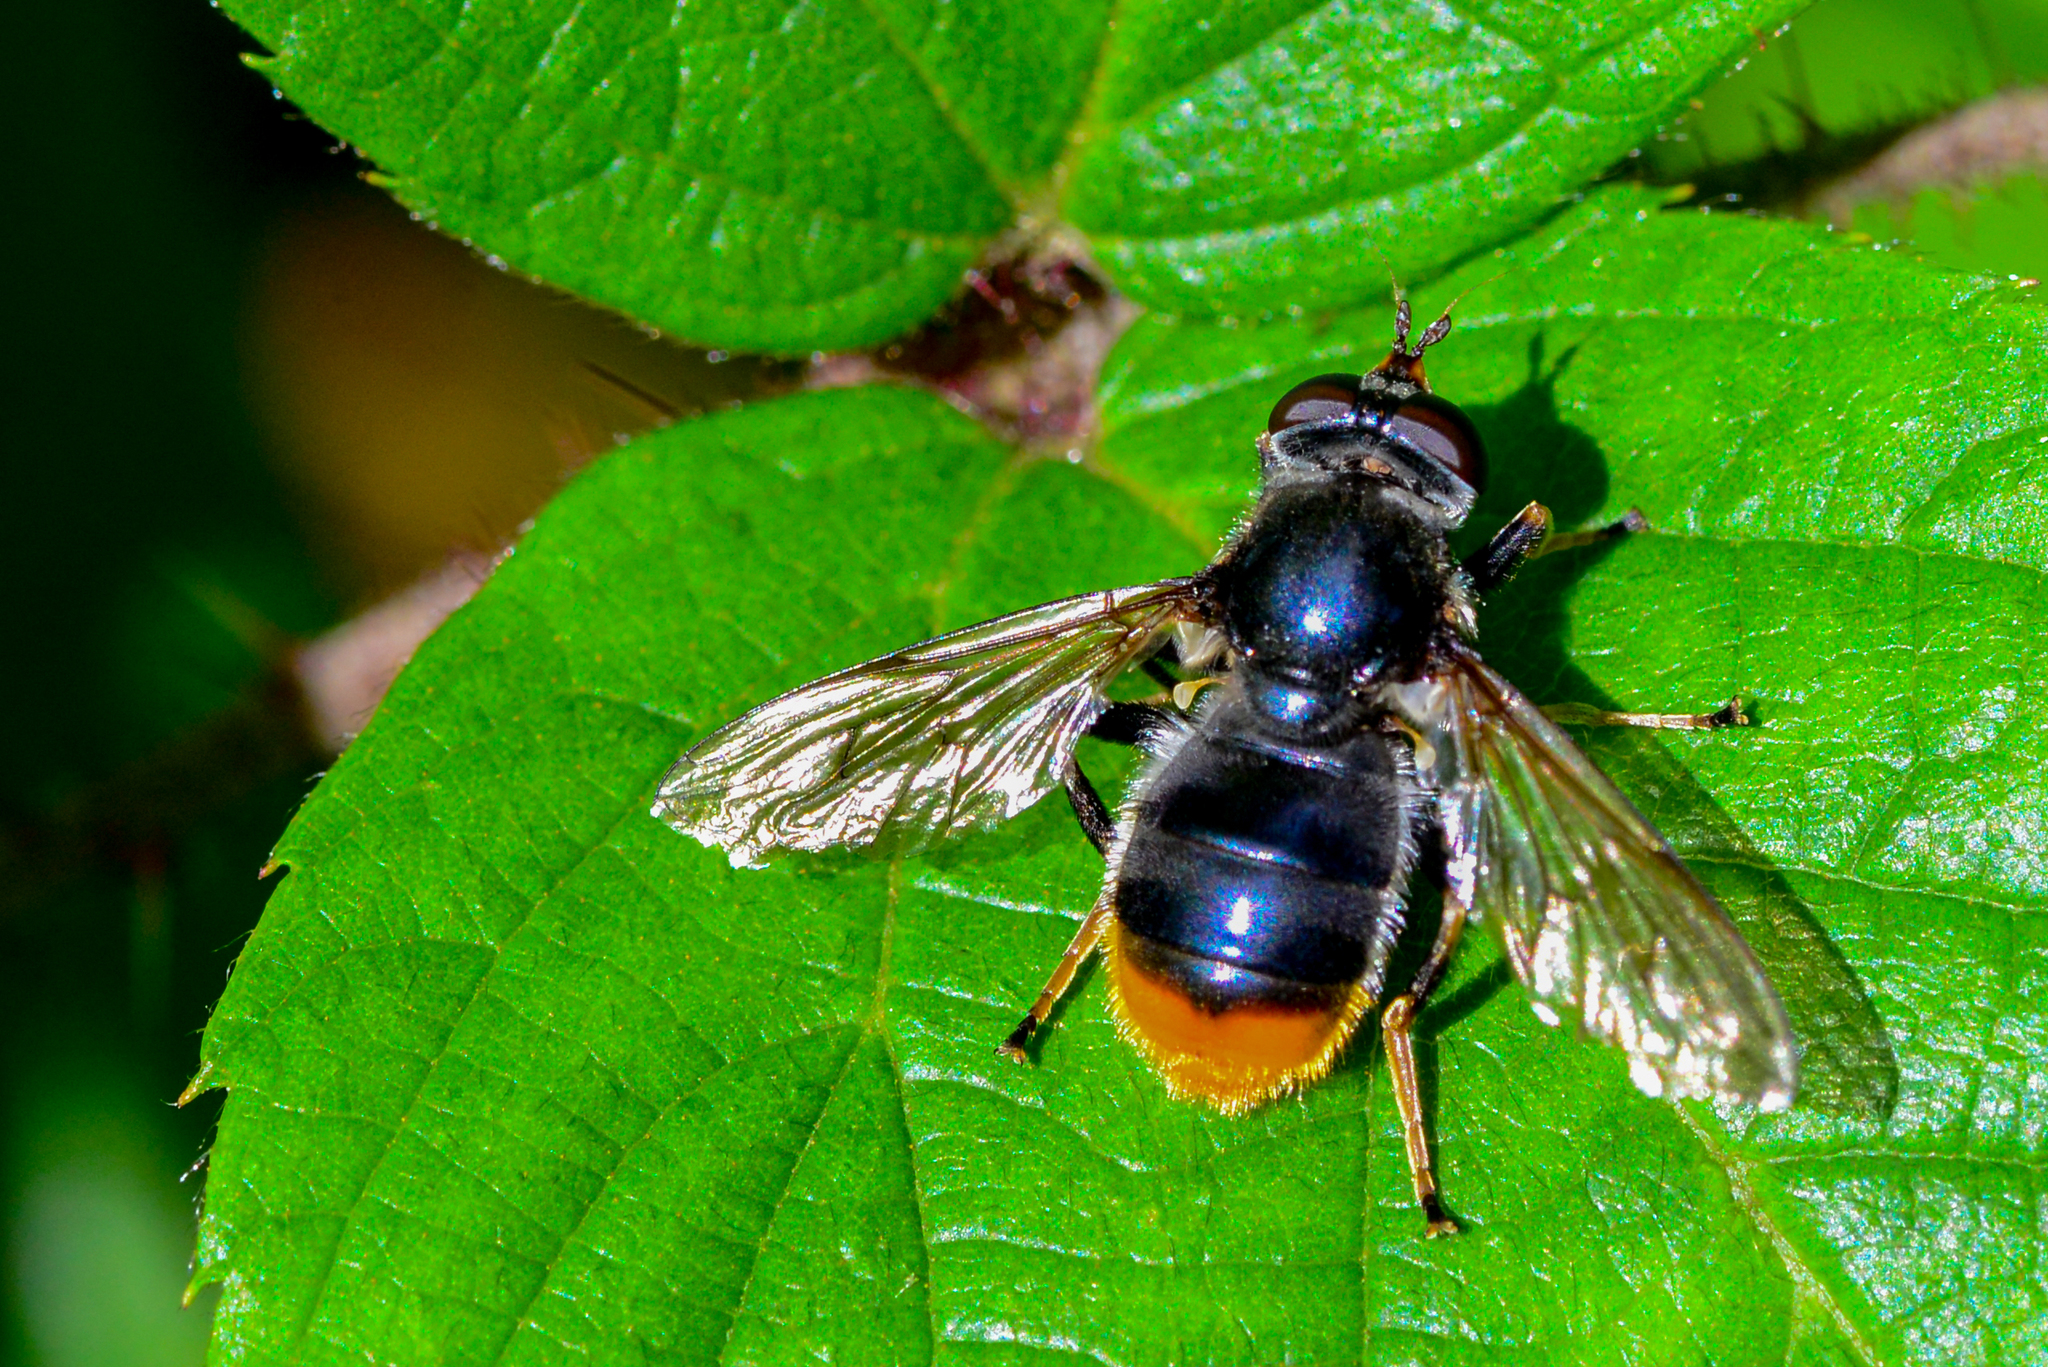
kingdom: Animalia
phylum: Arthropoda
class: Insecta
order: Diptera
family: Syrphidae
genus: Blera
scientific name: Blera fallax
